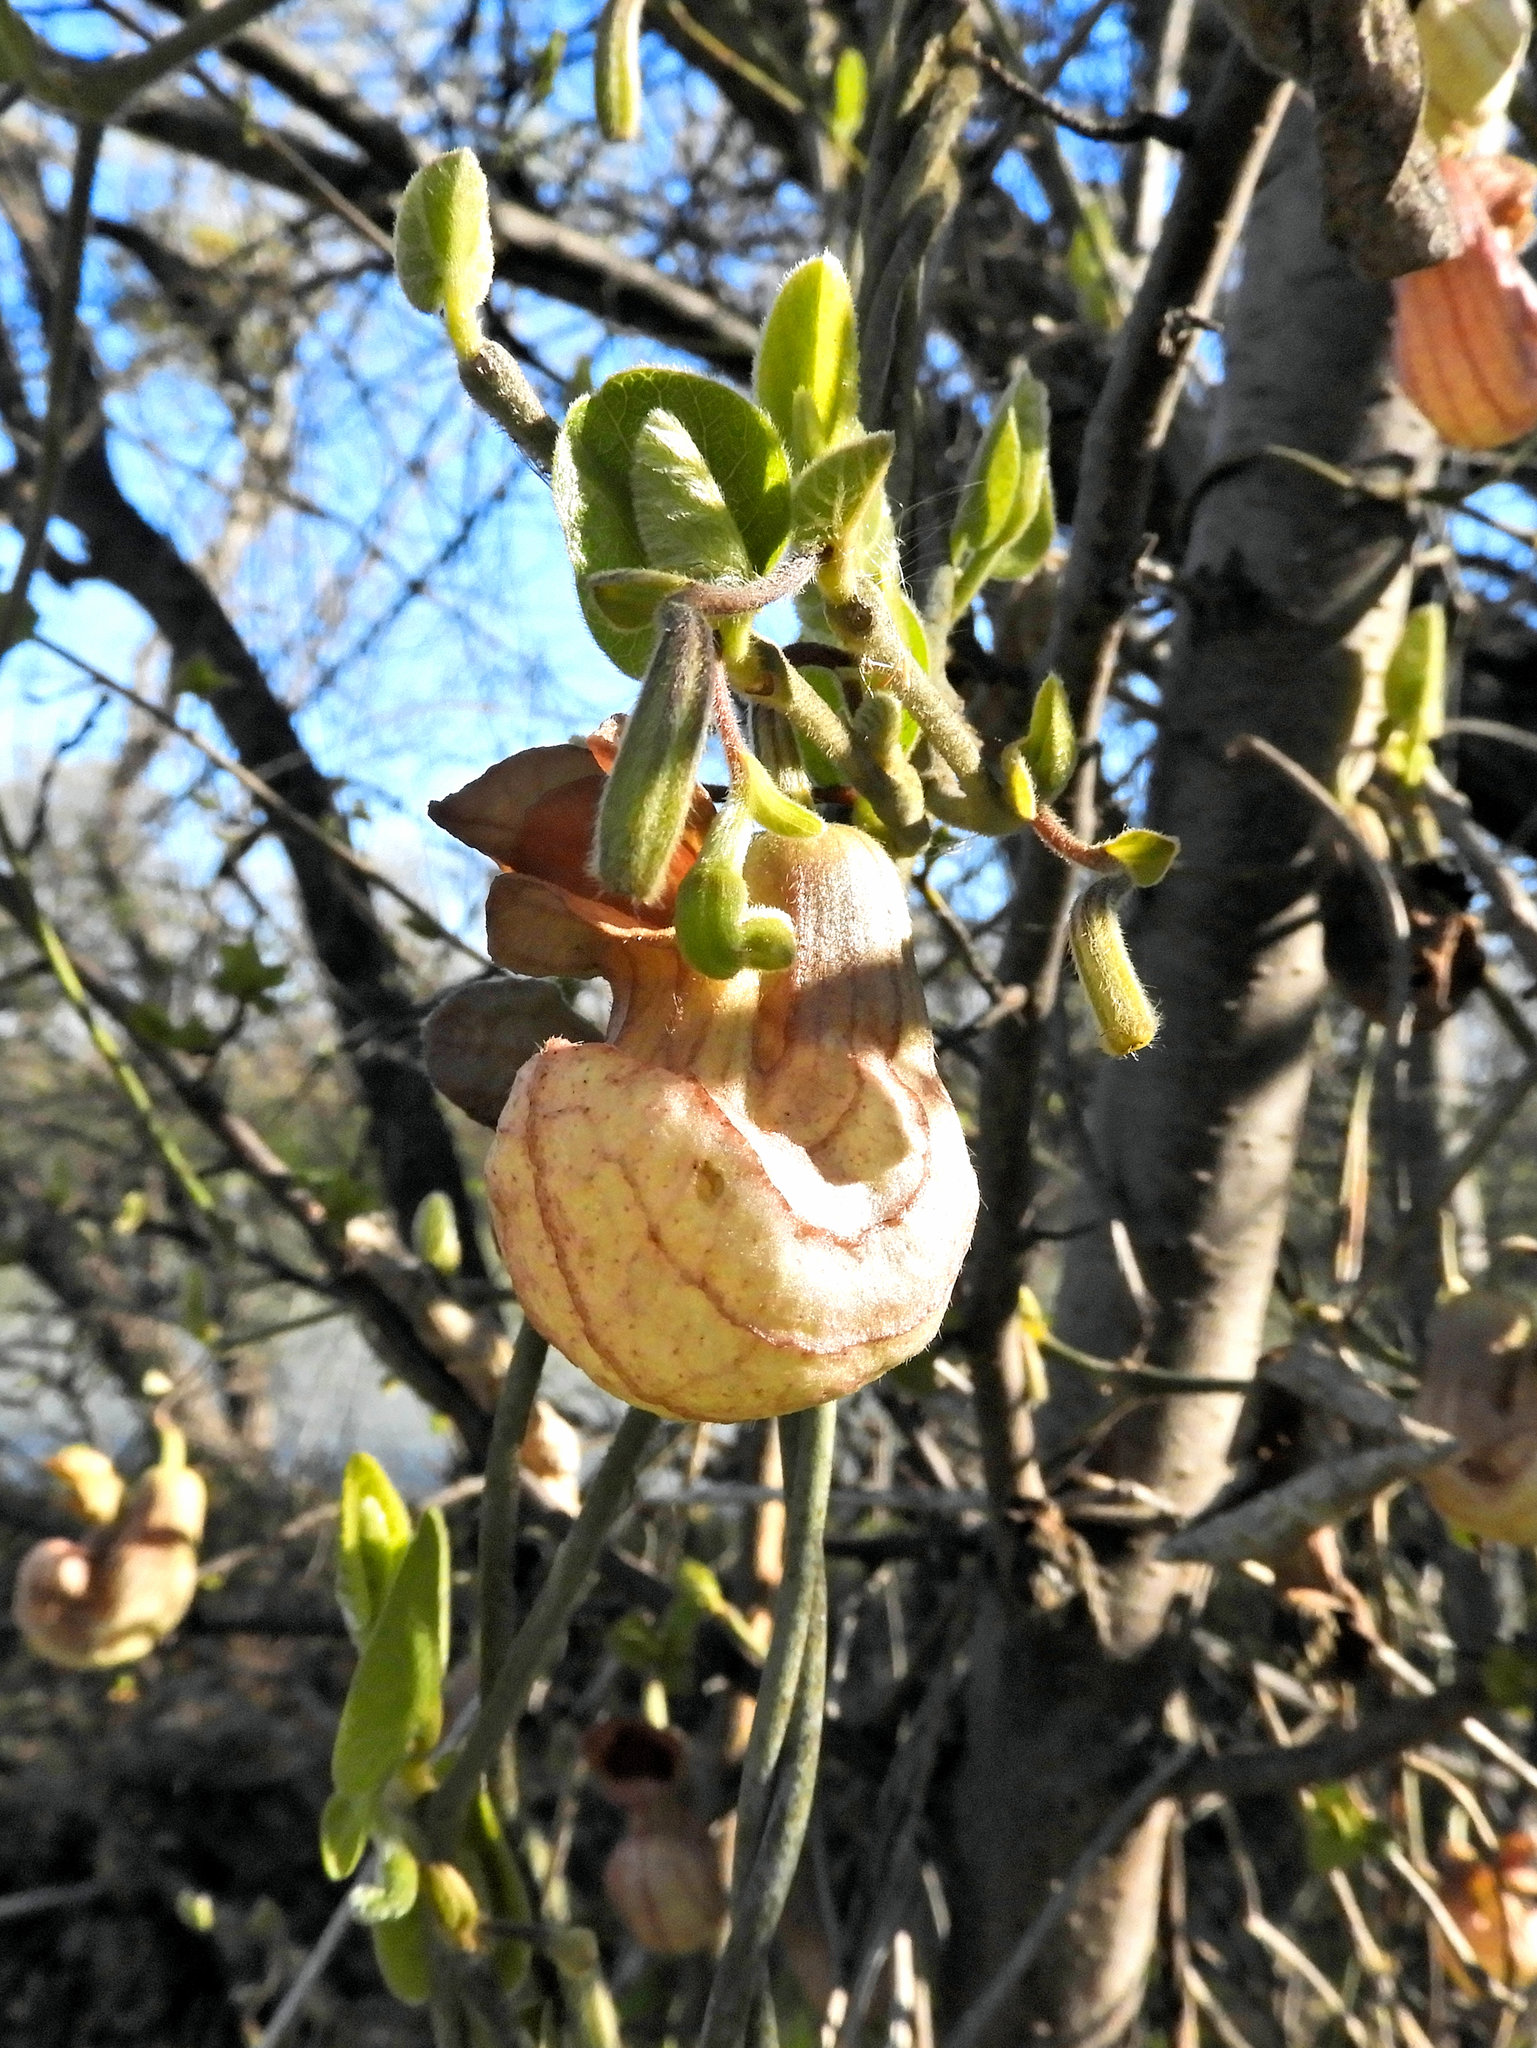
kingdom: Plantae
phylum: Tracheophyta
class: Magnoliopsida
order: Piperales
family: Aristolochiaceae
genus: Isotrema
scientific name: Isotrema californicum
